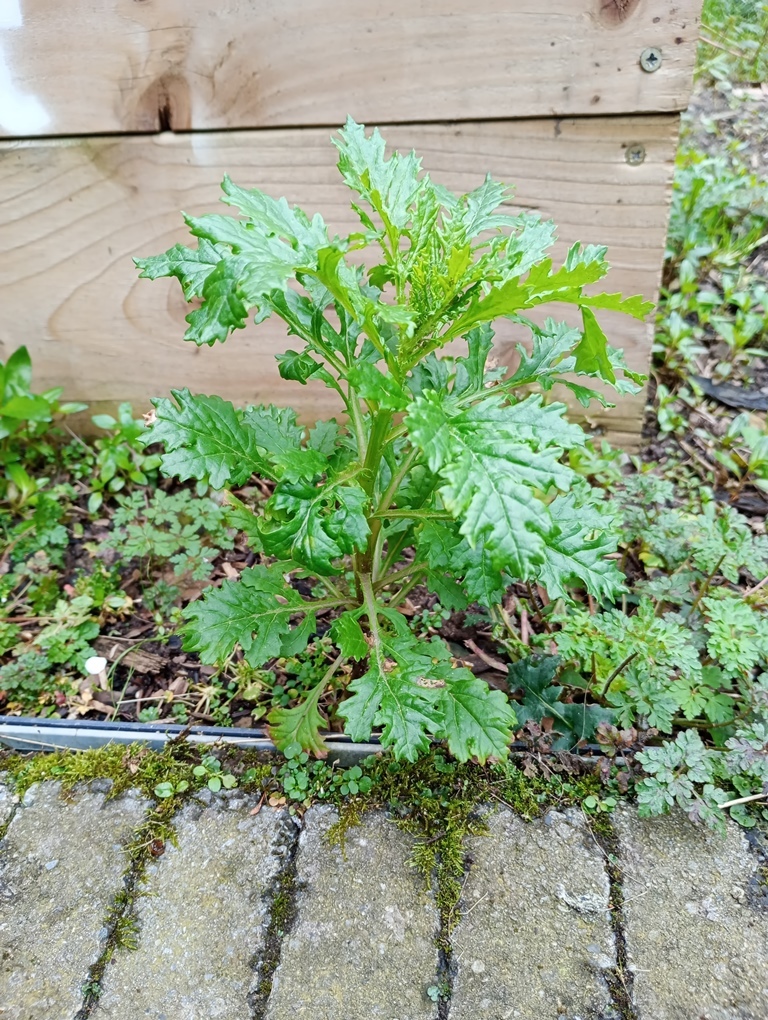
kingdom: Plantae
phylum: Tracheophyta
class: Magnoliopsida
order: Asterales
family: Asteraceae
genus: Senecio
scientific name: Senecio squalidus
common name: Oxford ragwort
